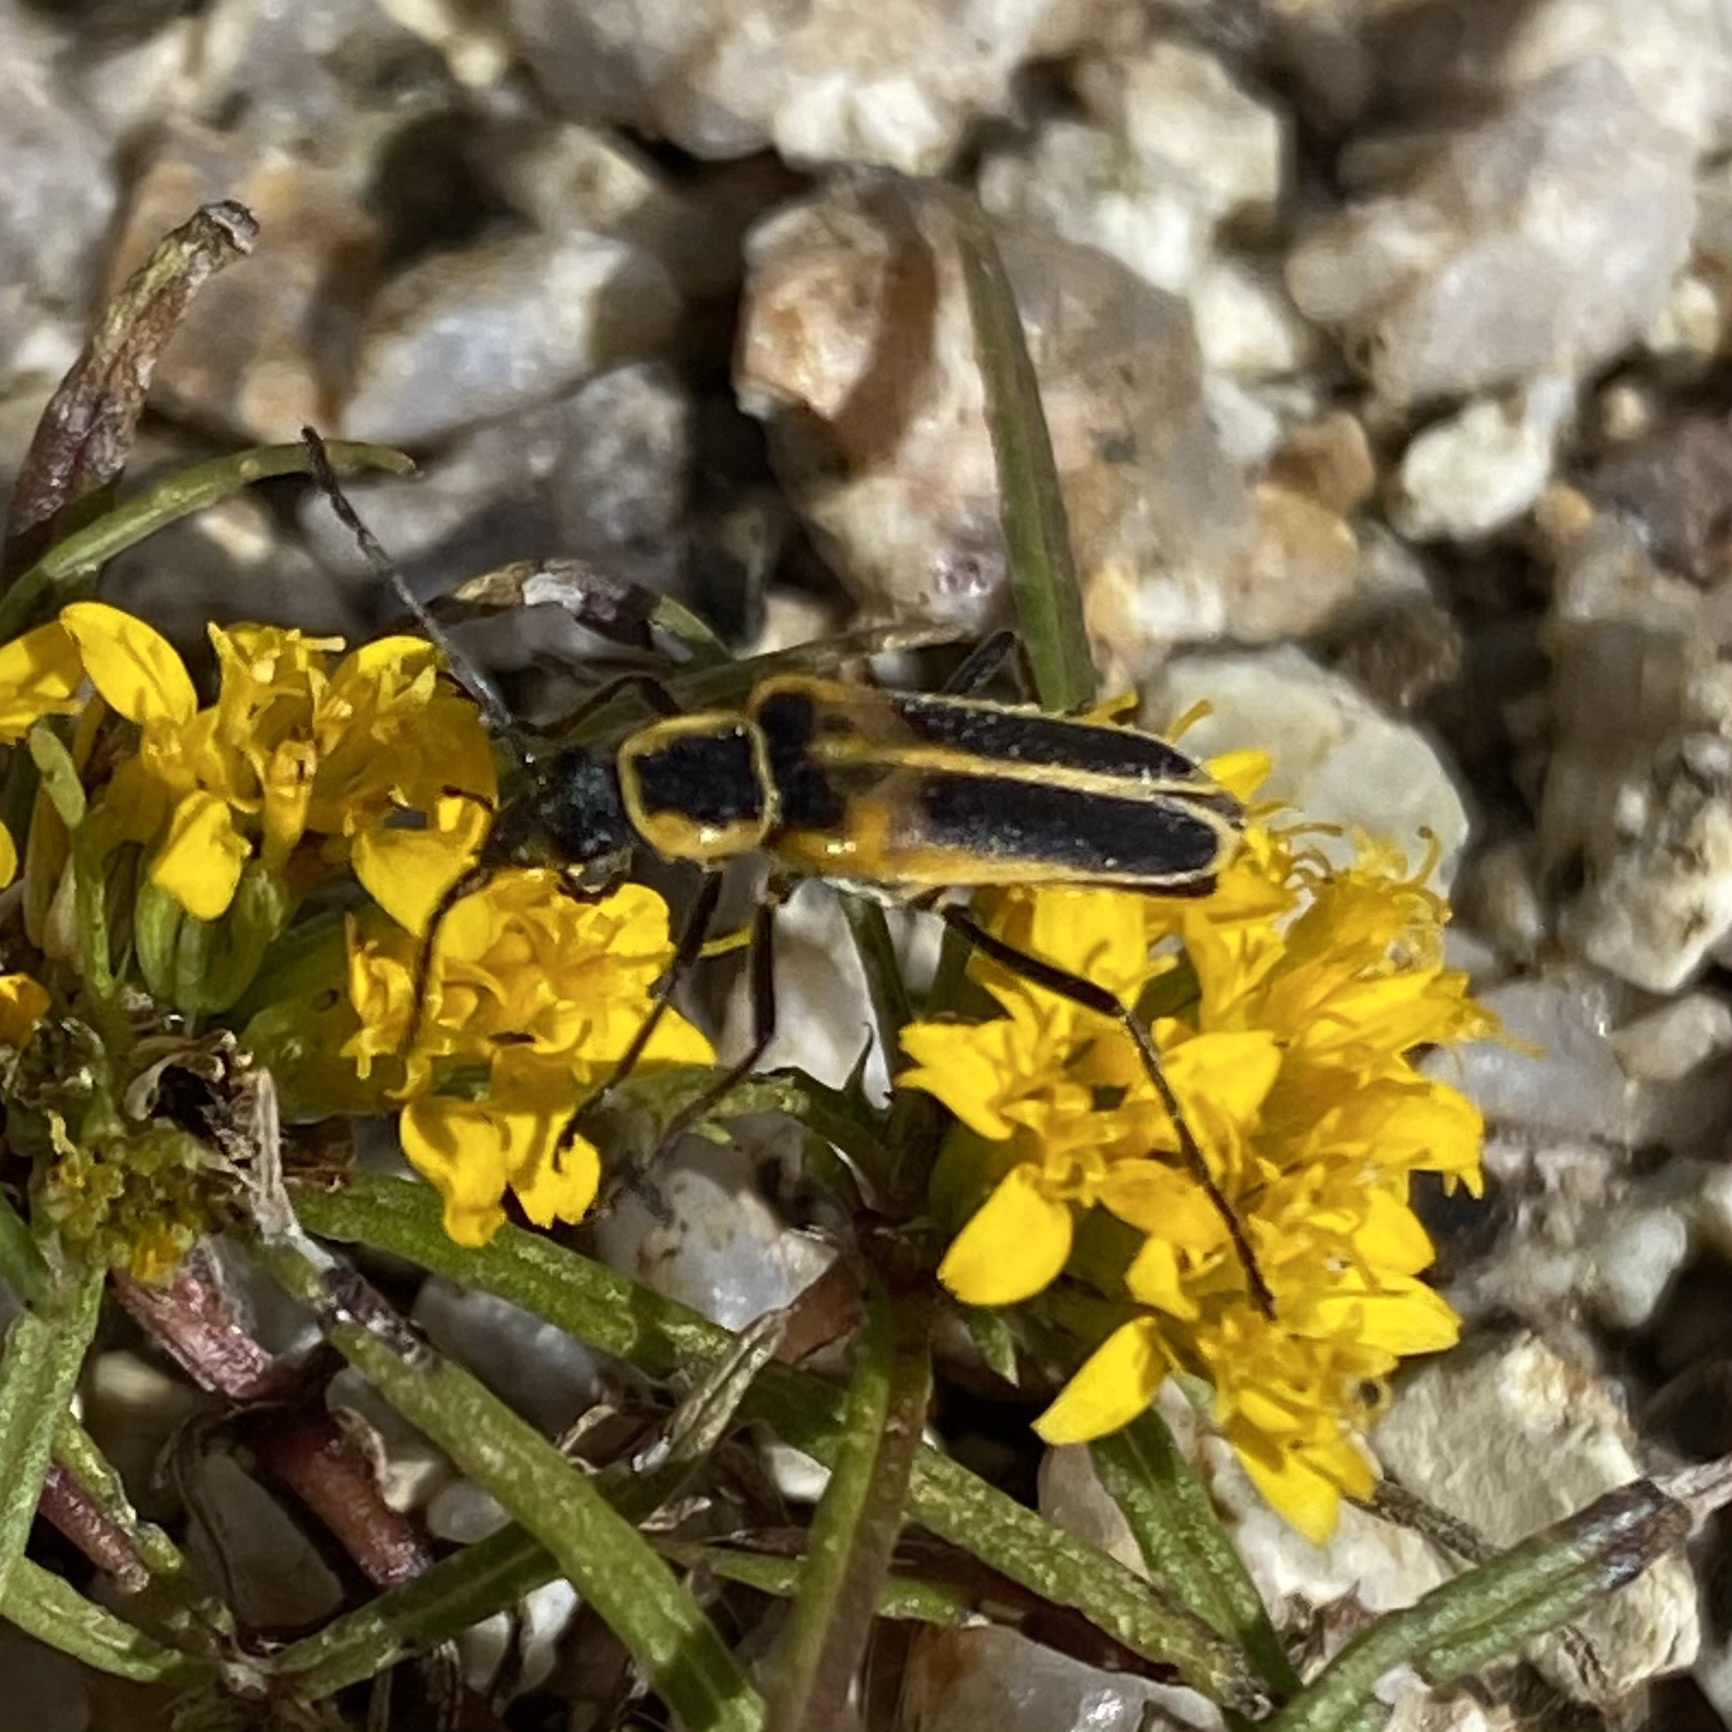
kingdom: Animalia
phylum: Arthropoda
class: Insecta
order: Coleoptera
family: Cantharidae
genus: Chauliognathus
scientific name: Chauliognathus lewisi
